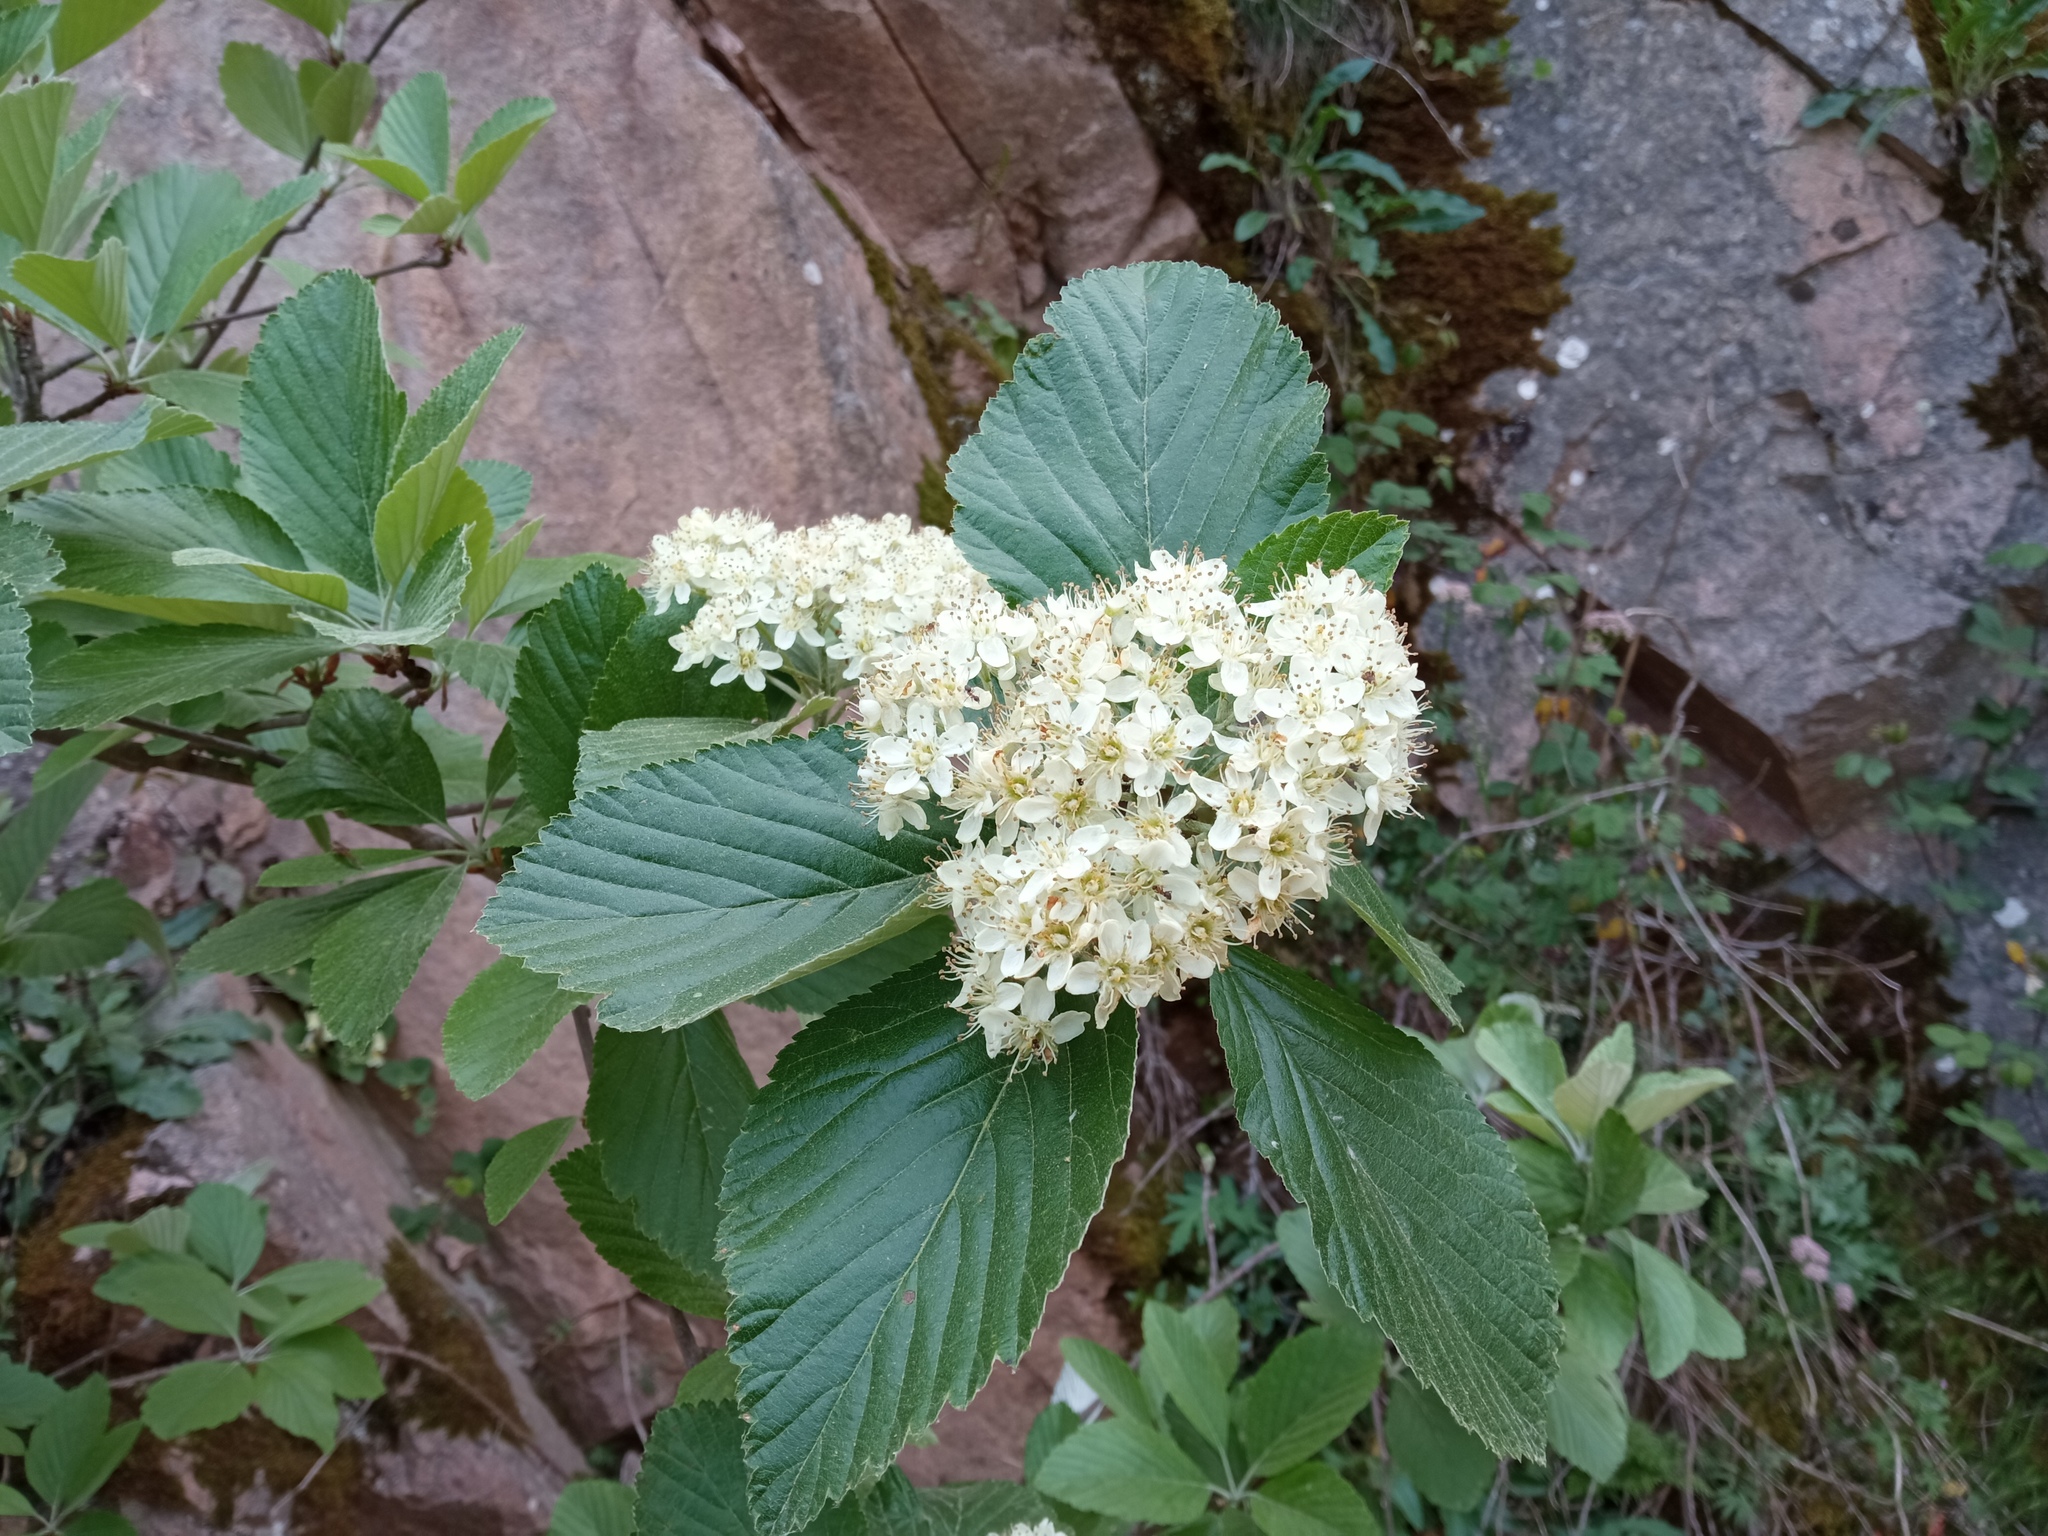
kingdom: Plantae
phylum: Tracheophyta
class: Magnoliopsida
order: Rosales
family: Rosaceae
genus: Aria
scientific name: Aria edulis
